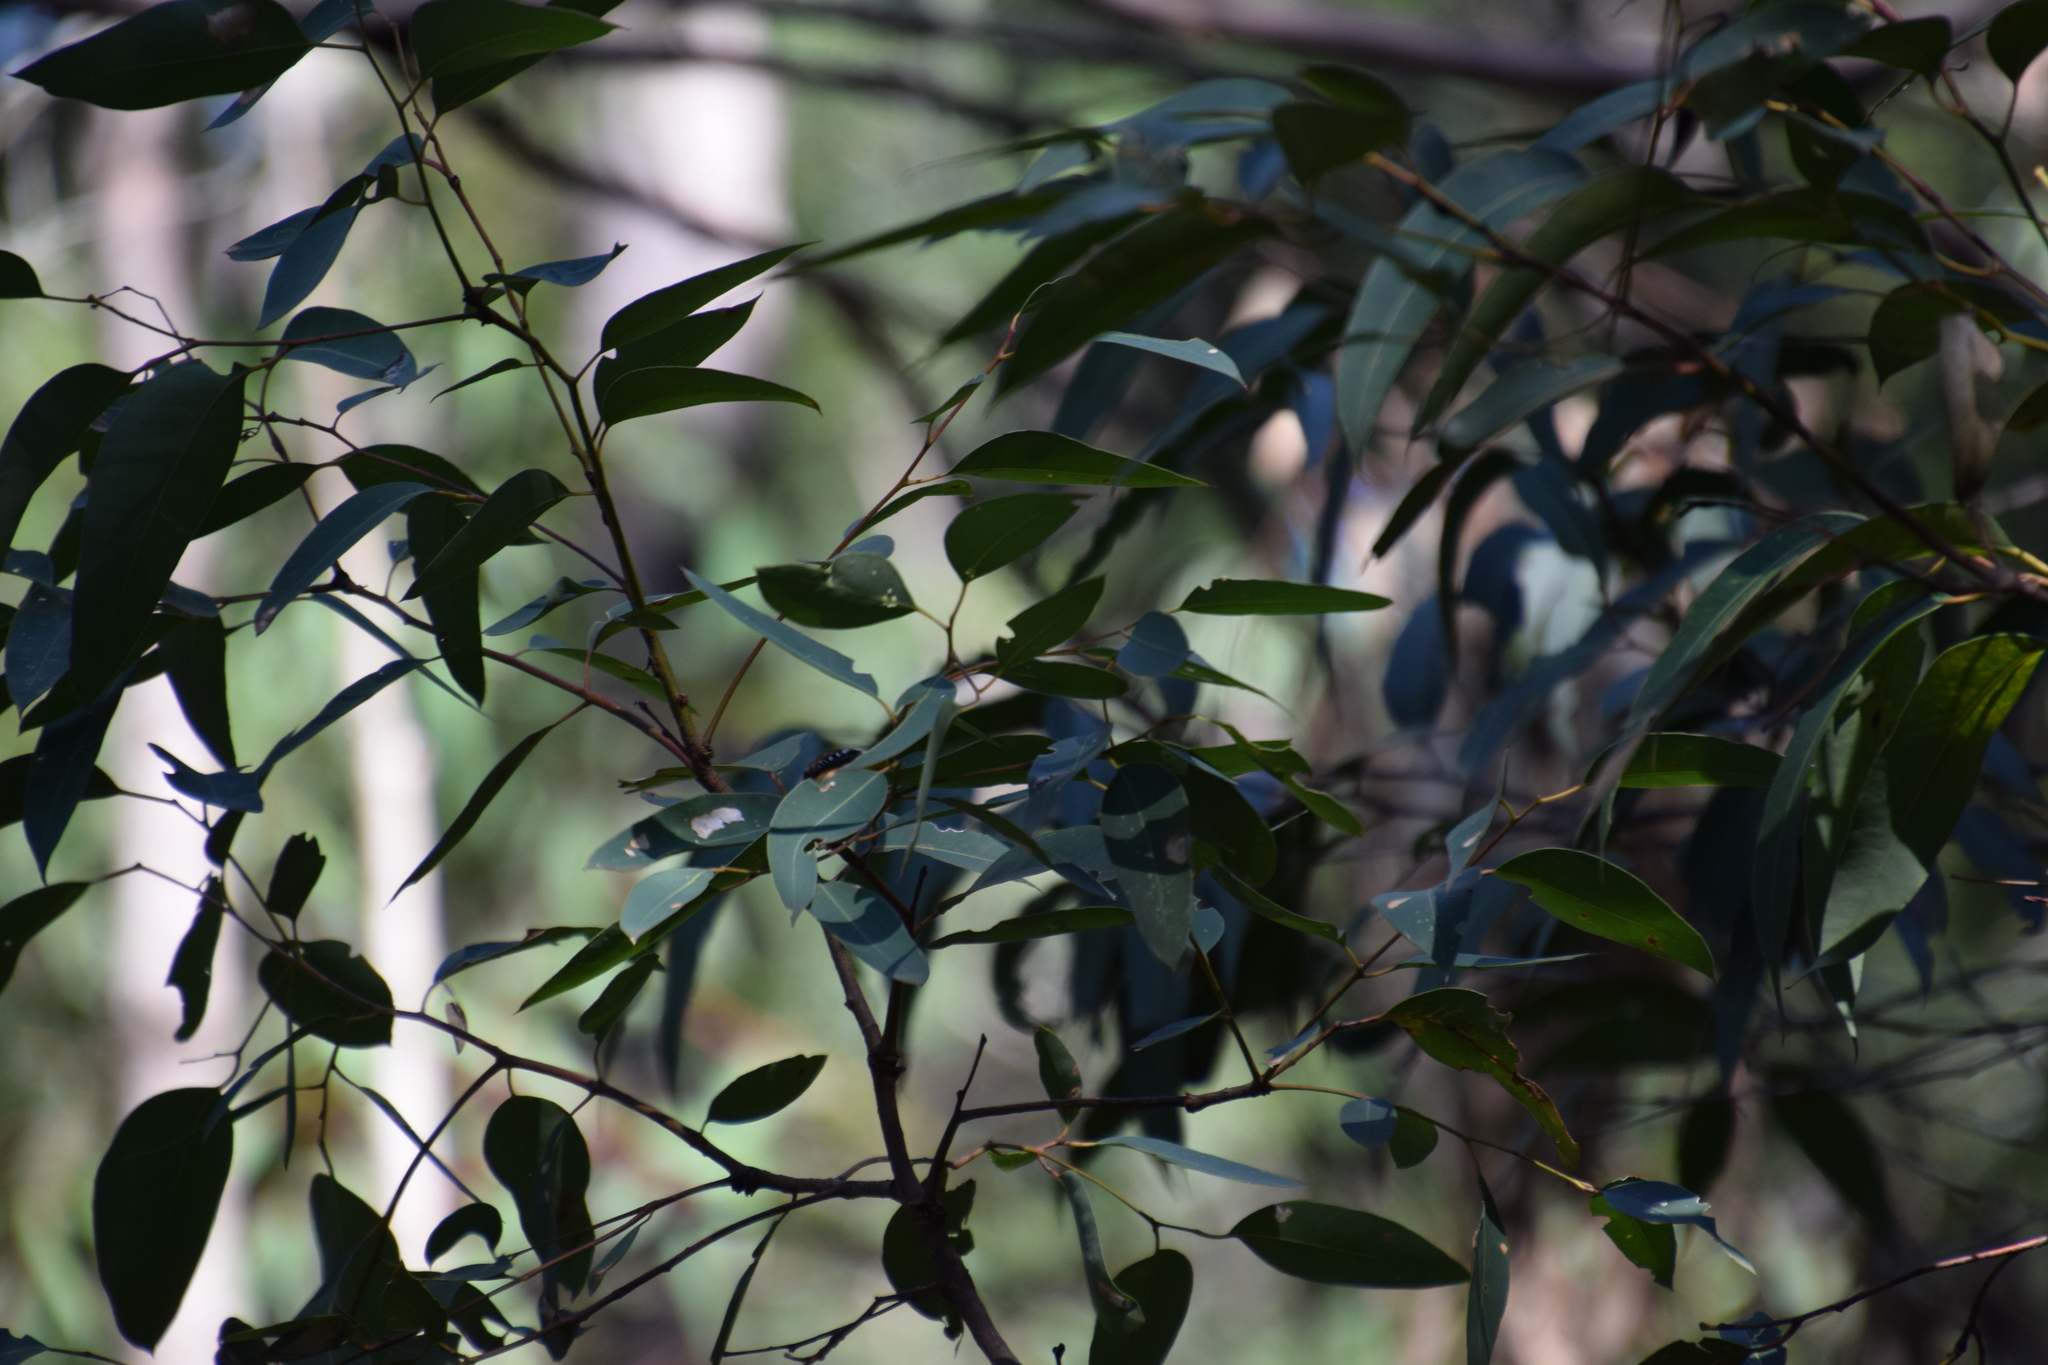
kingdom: Animalia
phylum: Chordata
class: Aves
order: Passeriformes
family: Pardalotidae
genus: Pardalotus
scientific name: Pardalotus punctatus
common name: Spotted pardalote
